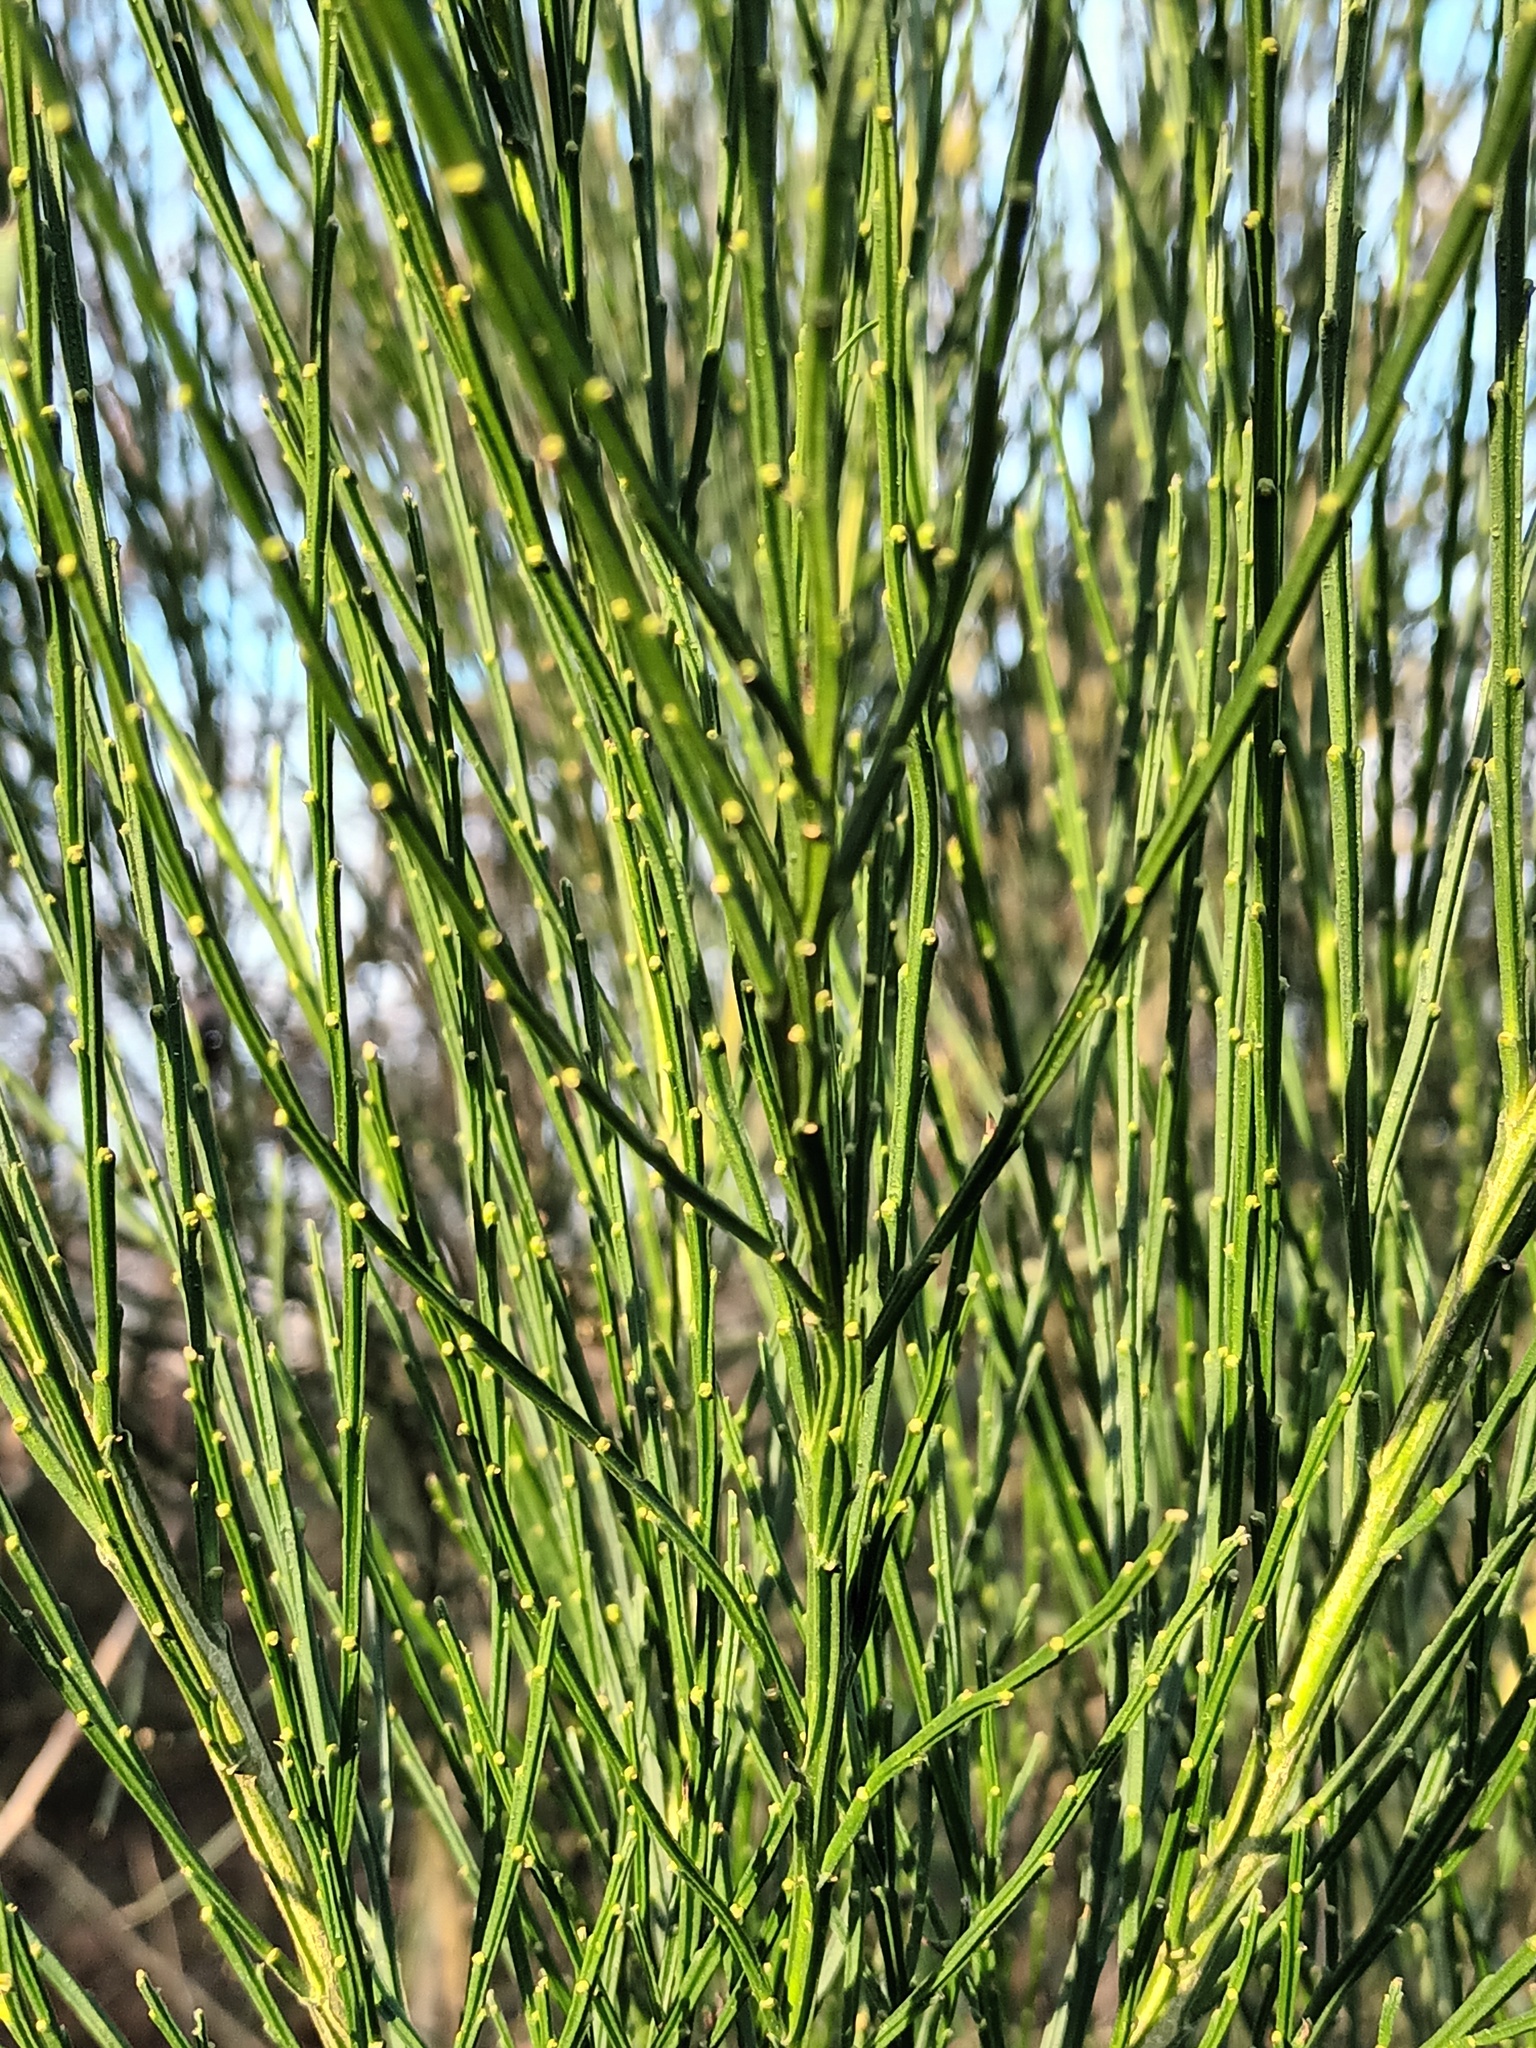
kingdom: Plantae
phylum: Tracheophyta
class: Magnoliopsida
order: Fabales
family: Fabaceae
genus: Cytisus
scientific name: Cytisus scoparius
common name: Scotch broom
